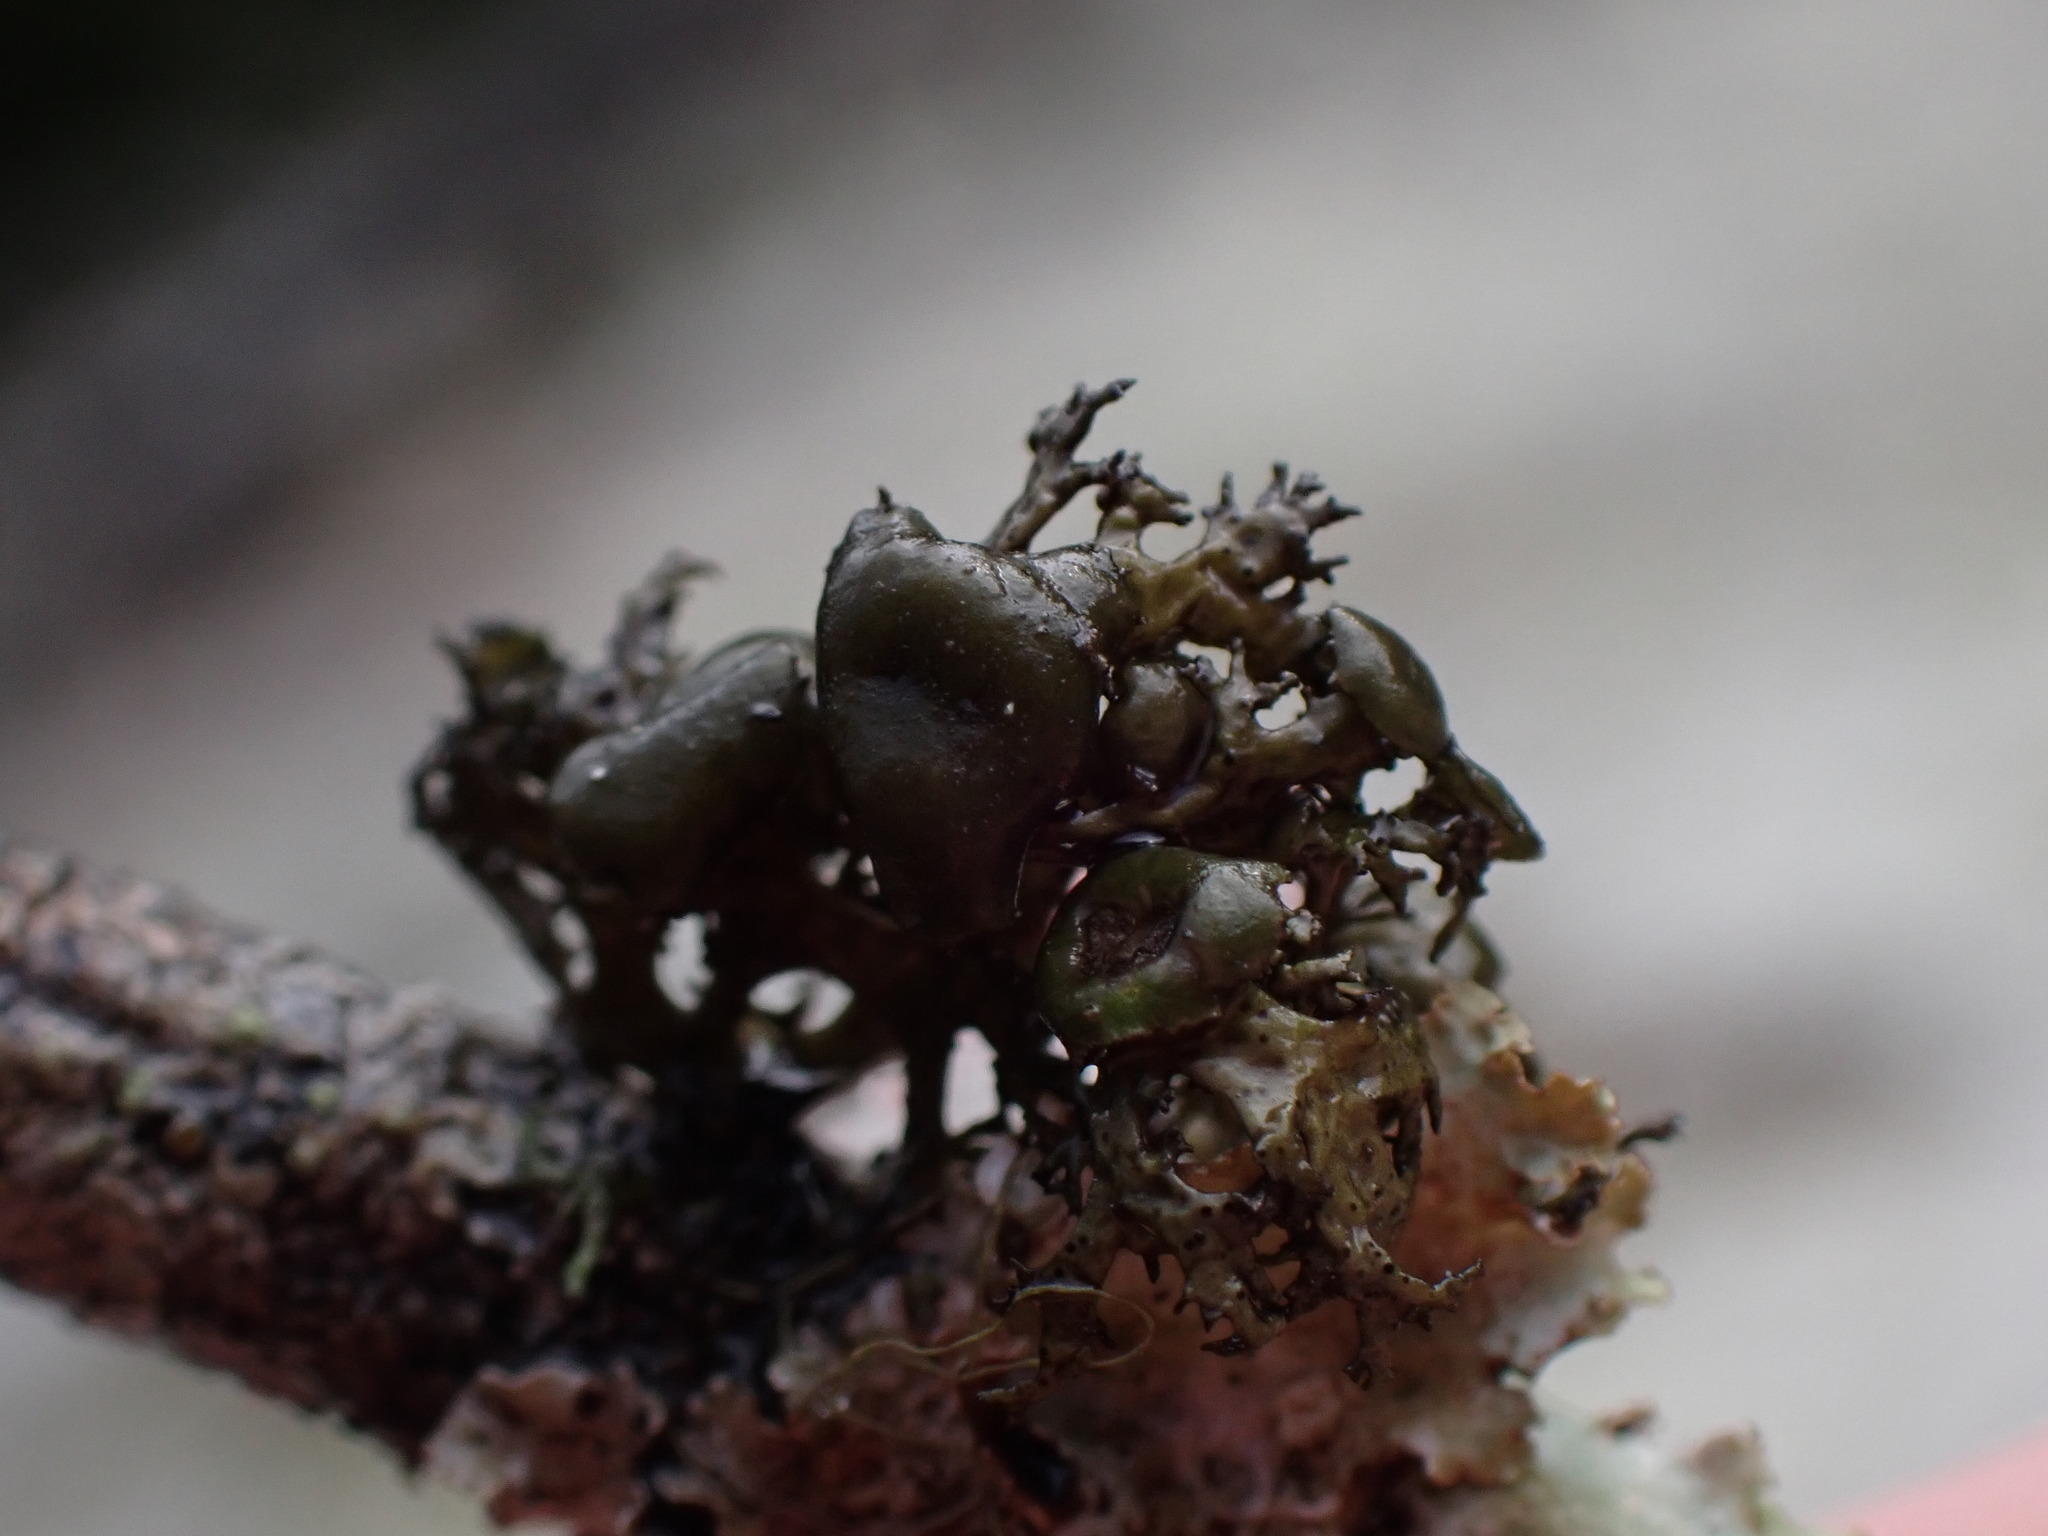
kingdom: Fungi
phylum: Ascomycota
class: Lecanoromycetes
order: Lecanorales
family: Parmeliaceae
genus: Nephromopsis
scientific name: Nephromopsis merrillii
